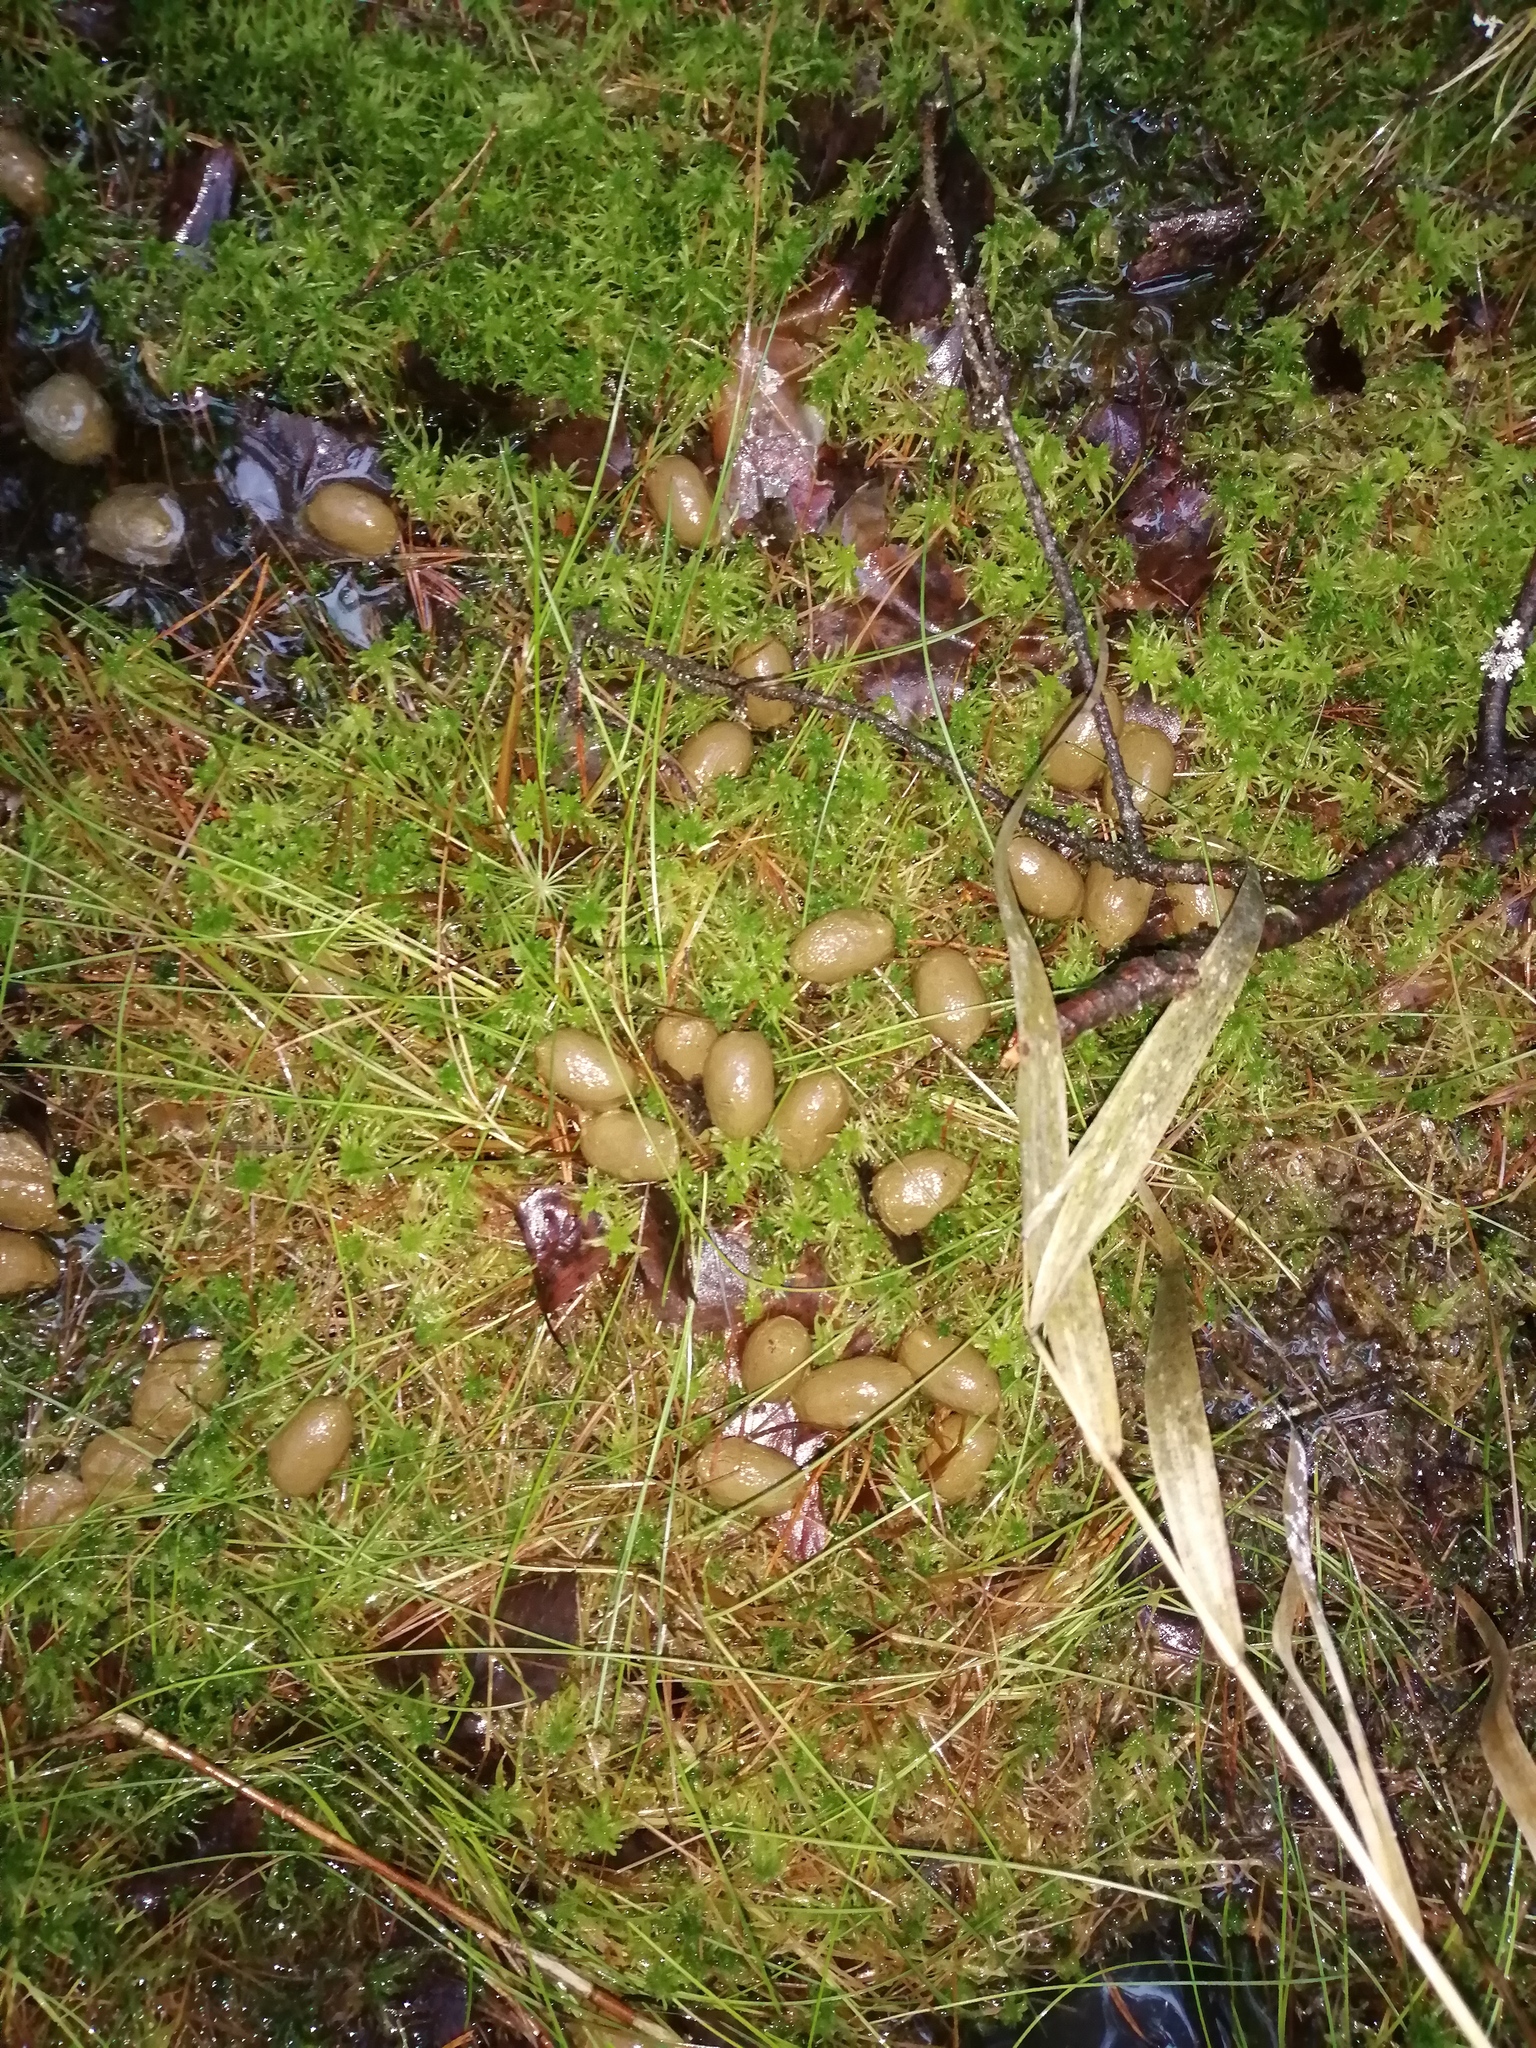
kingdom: Animalia
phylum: Chordata
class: Mammalia
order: Artiodactyla
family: Cervidae
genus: Alces
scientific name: Alces alces
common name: Moose
